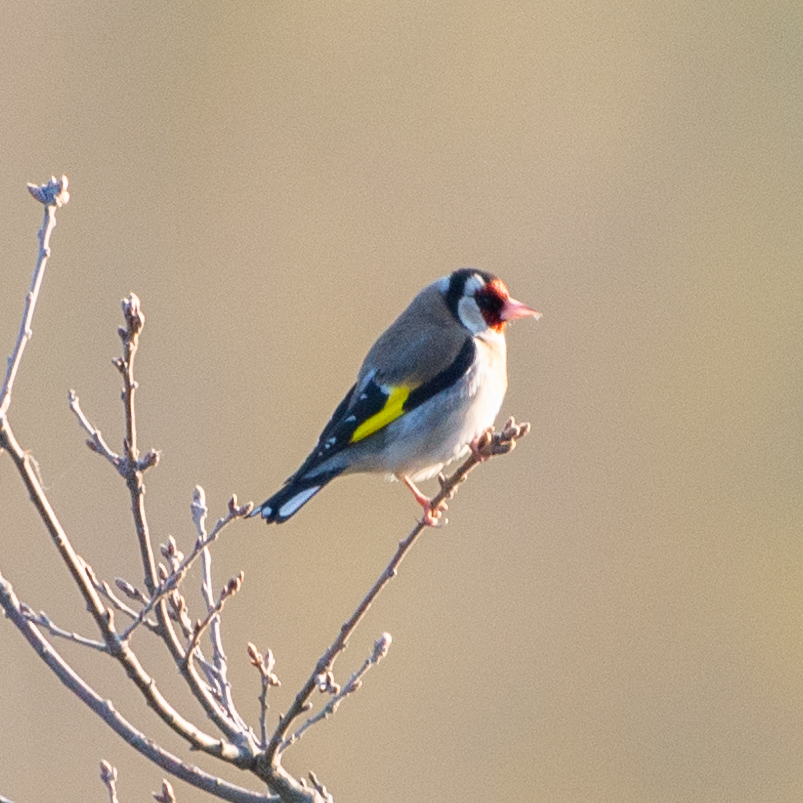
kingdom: Animalia
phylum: Chordata
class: Aves
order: Passeriformes
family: Fringillidae
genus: Carduelis
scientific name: Carduelis carduelis
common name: European goldfinch
